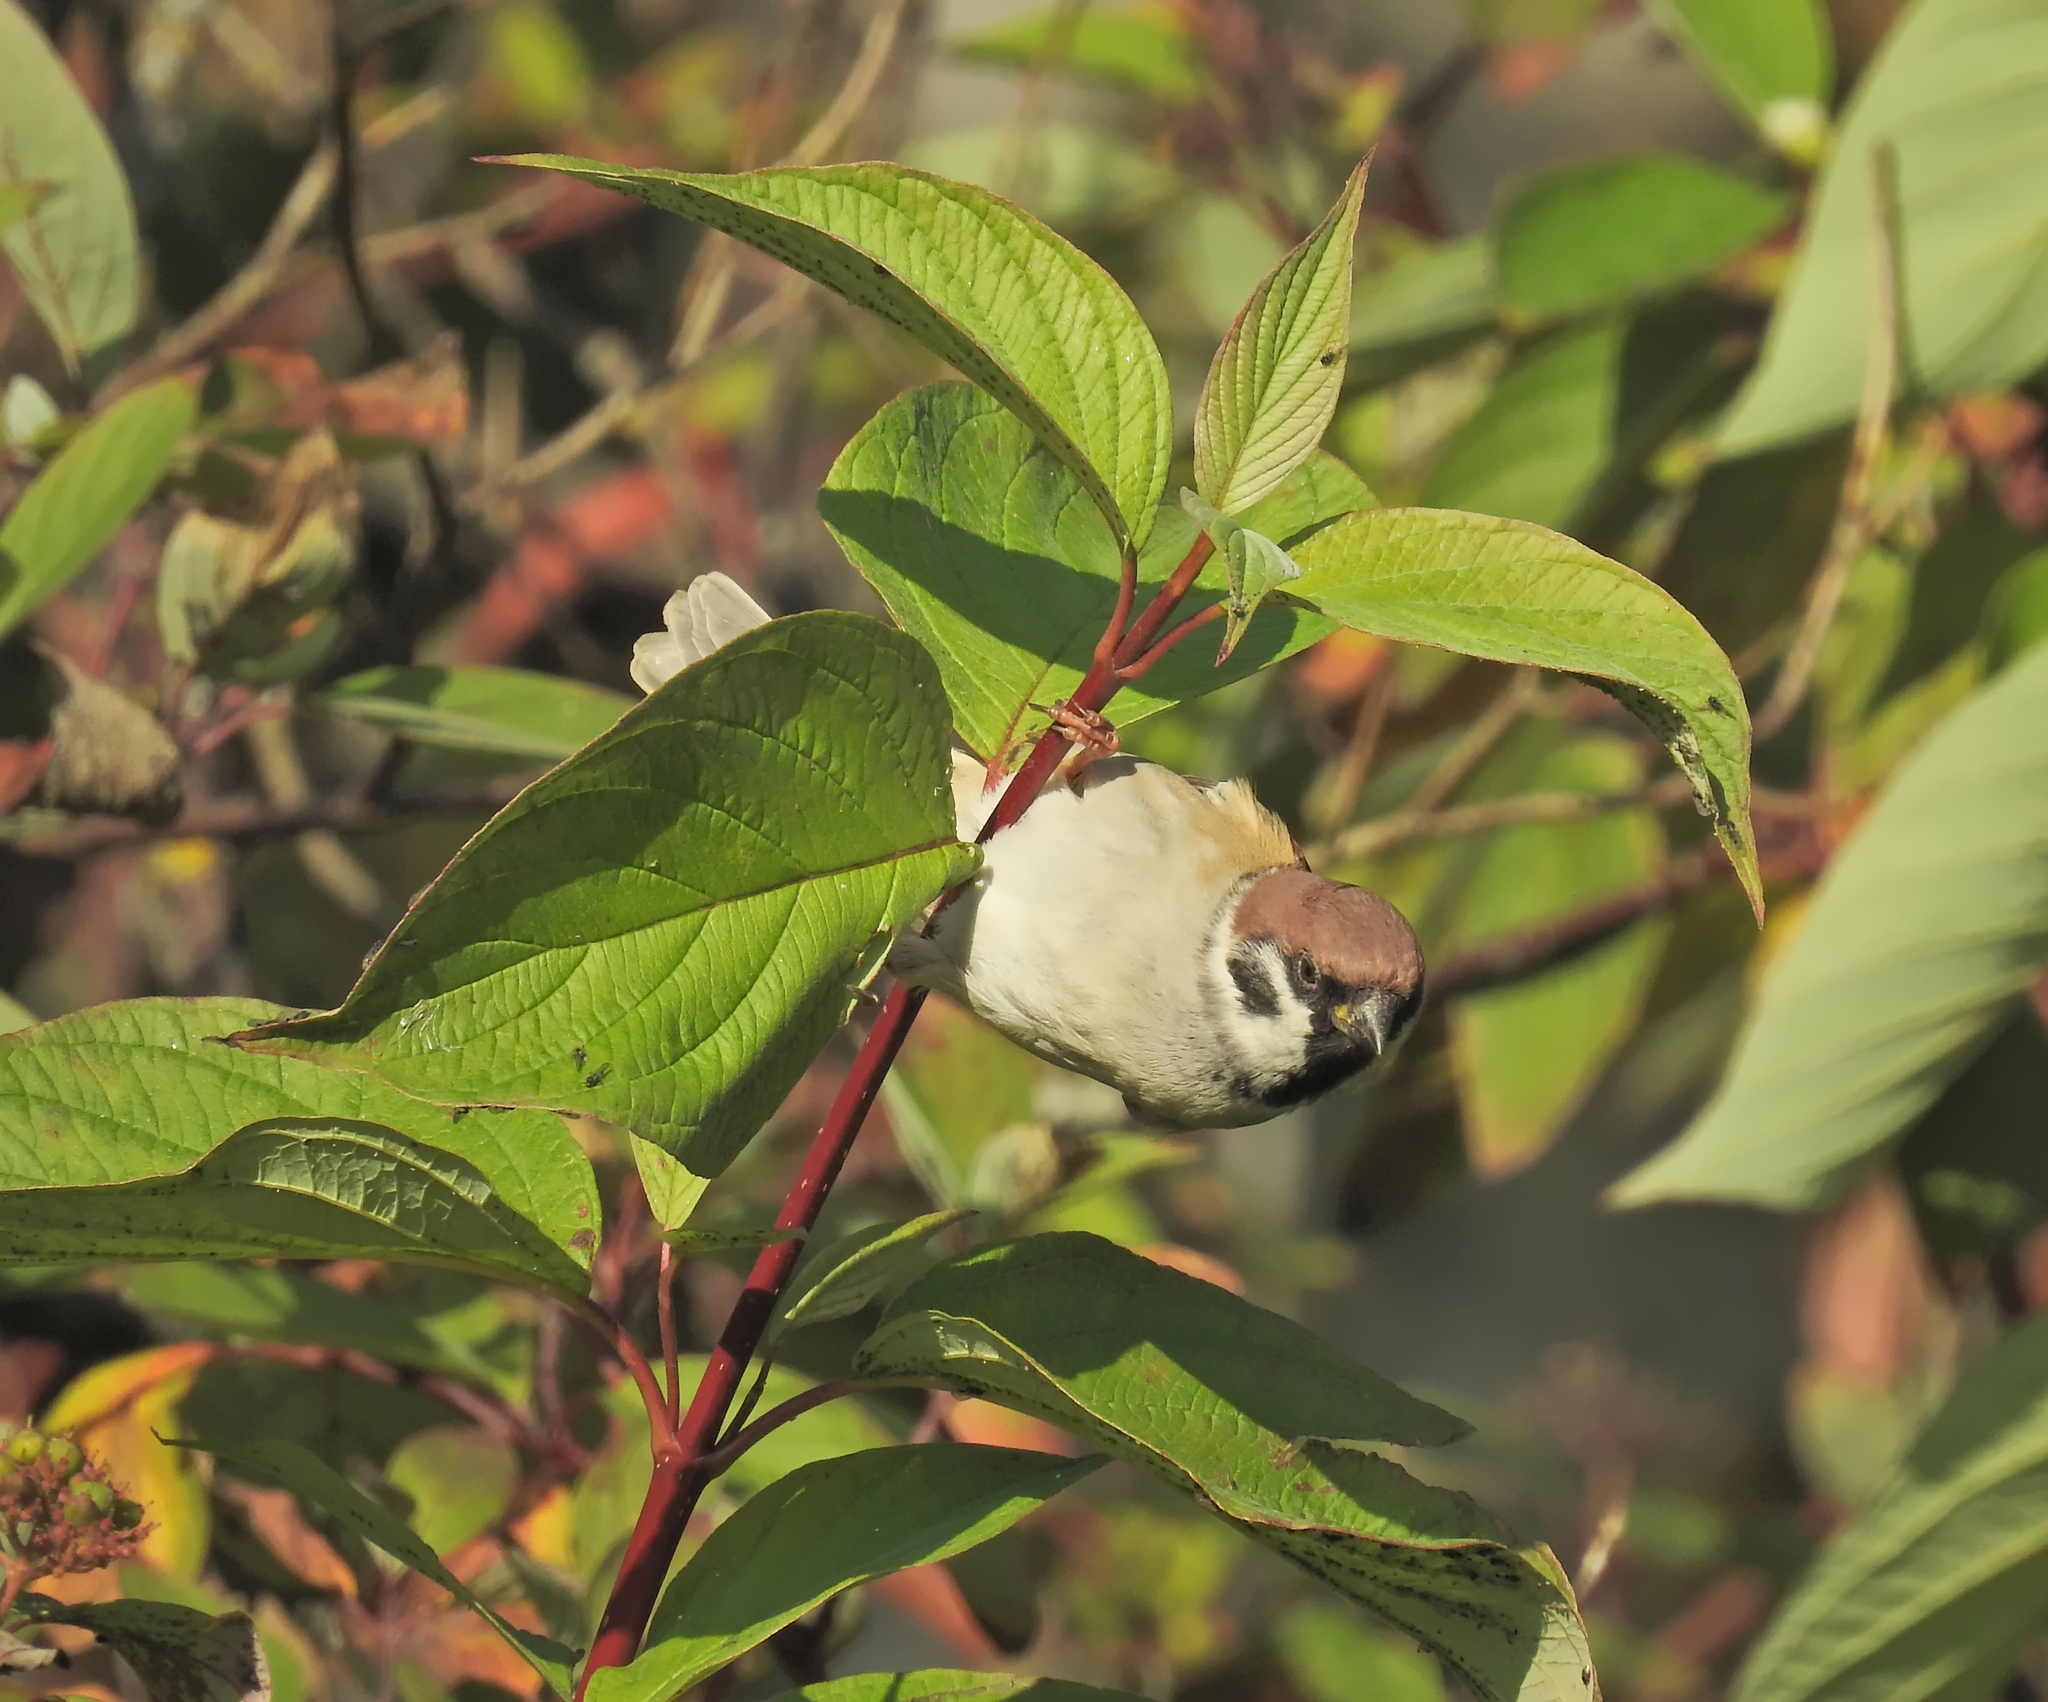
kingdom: Animalia
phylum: Chordata
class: Aves
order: Passeriformes
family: Passeridae
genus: Passer
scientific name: Passer montanus
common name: Eurasian tree sparrow
